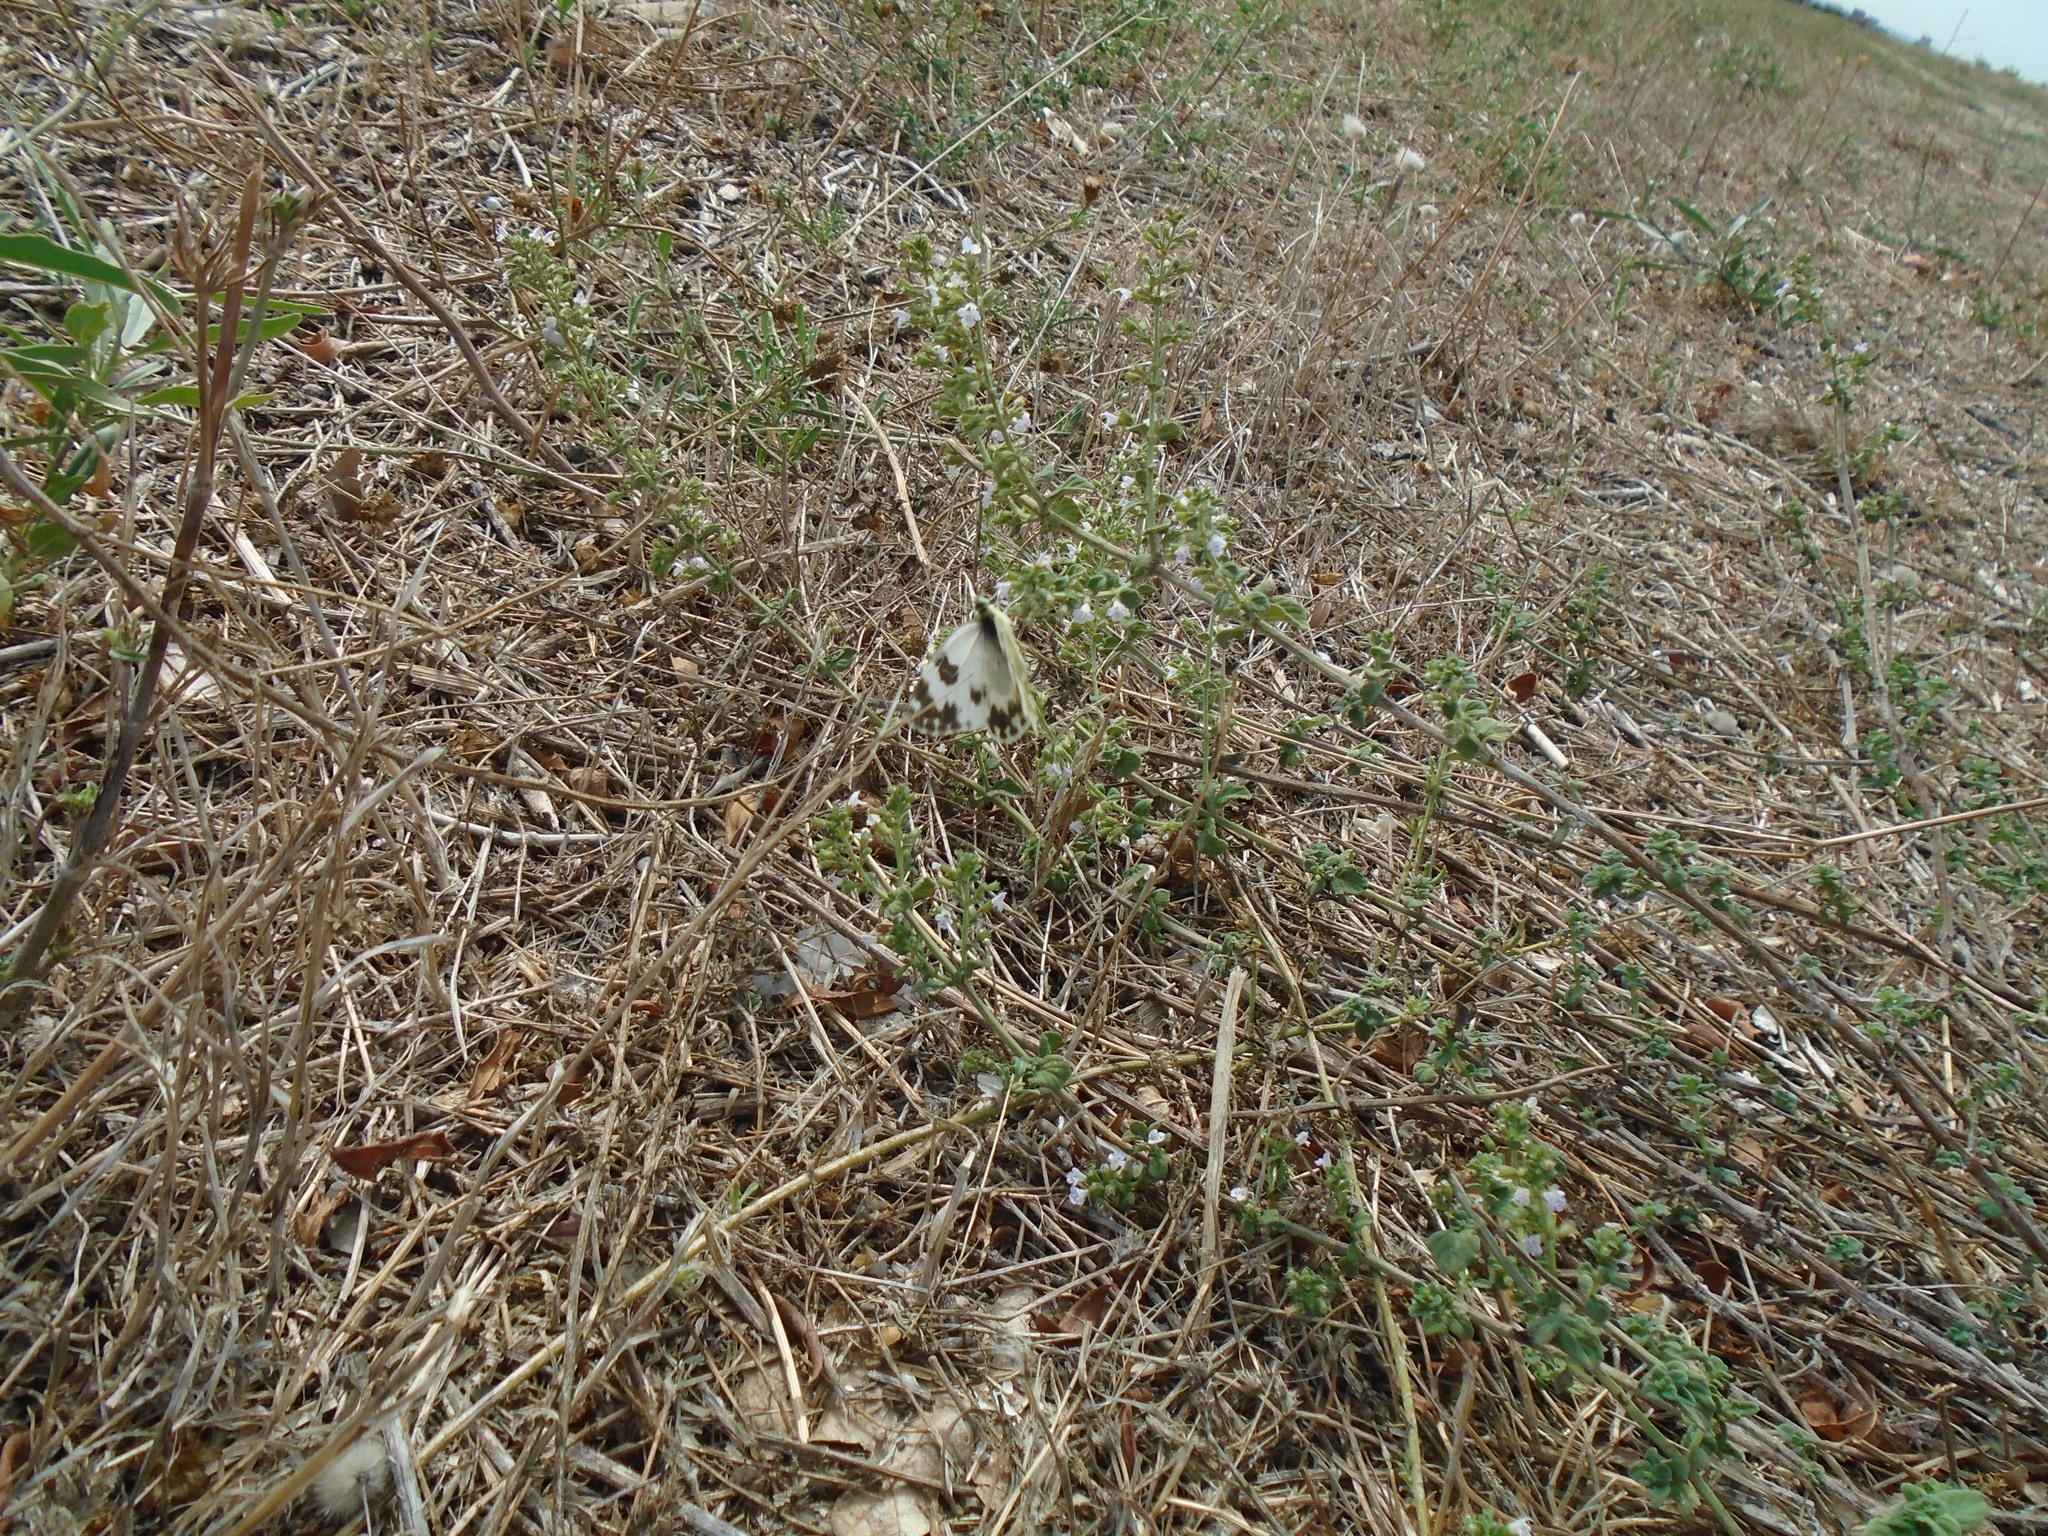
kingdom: Animalia
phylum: Arthropoda
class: Insecta
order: Lepidoptera
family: Pieridae
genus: Pontia
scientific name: Pontia daplidice
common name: Bath white
